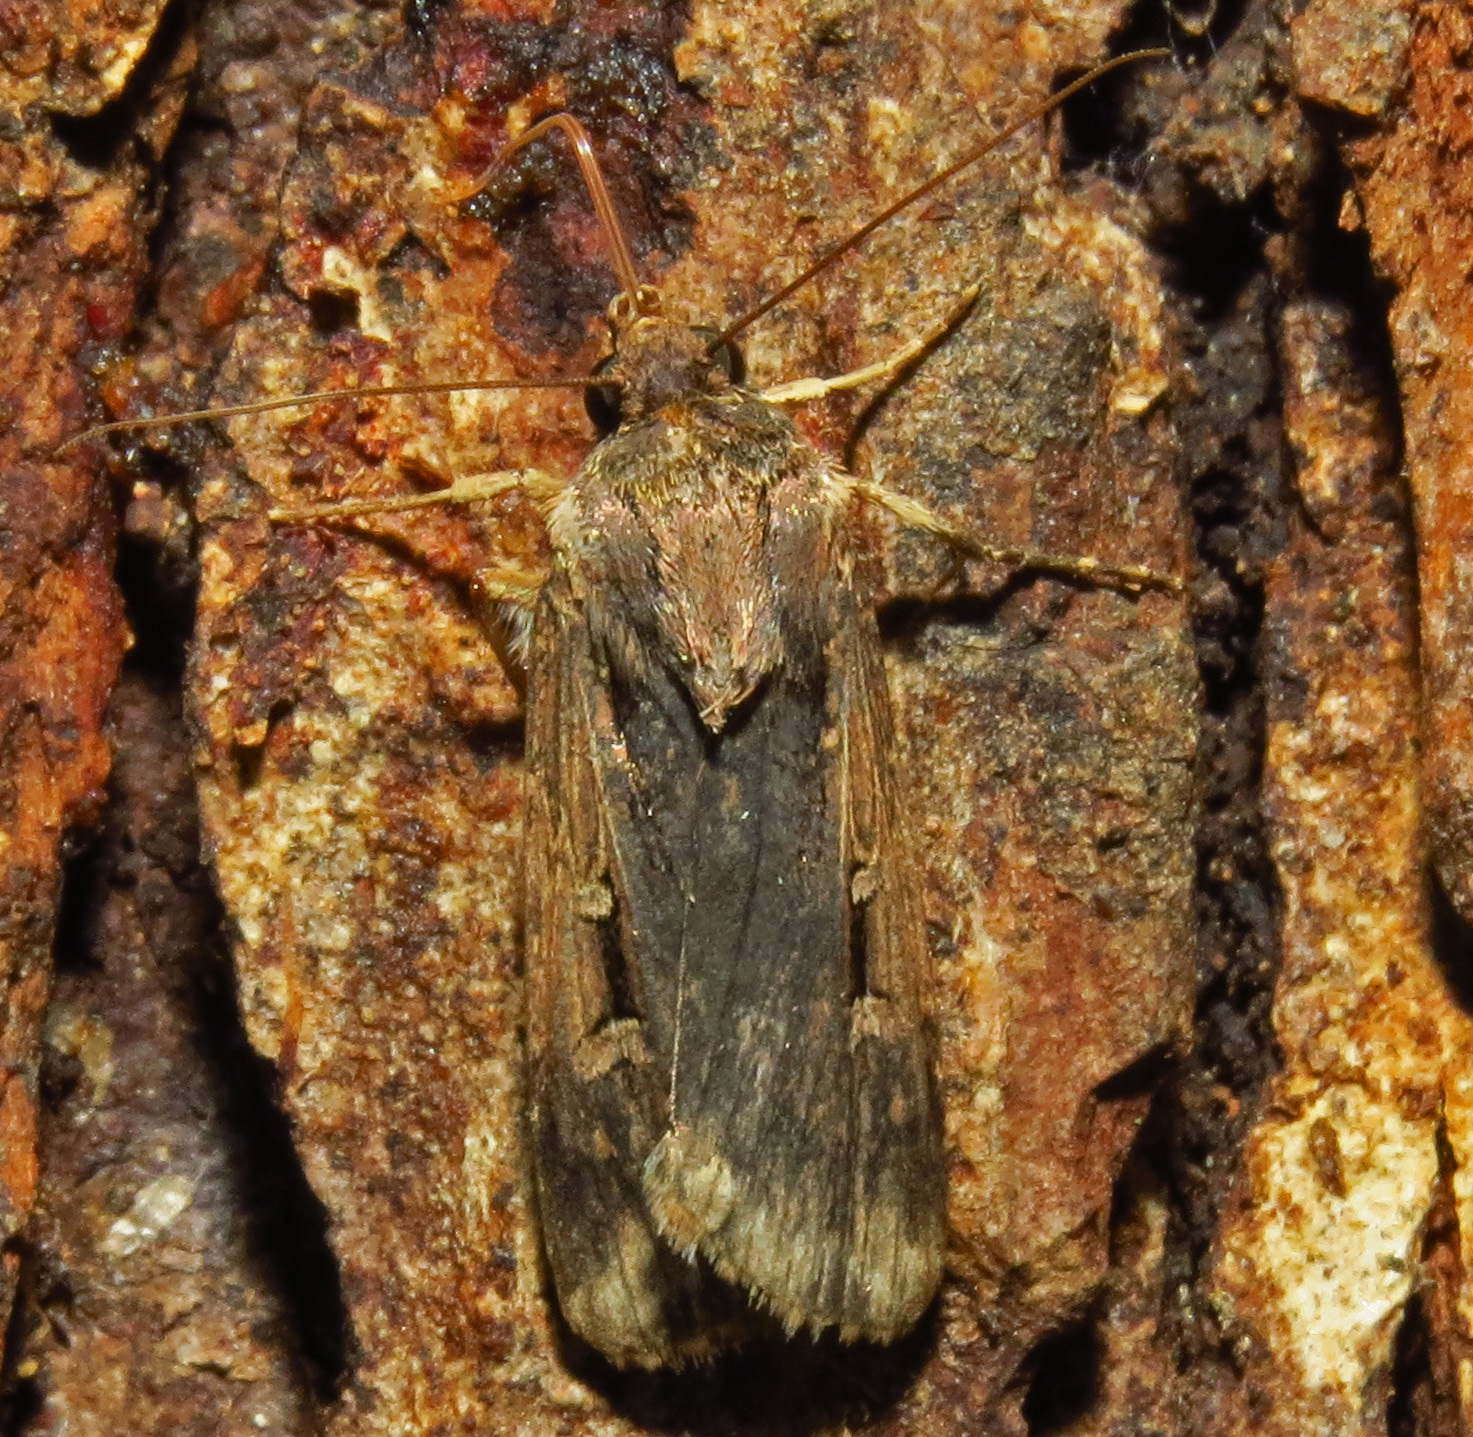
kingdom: Animalia
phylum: Arthropoda
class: Insecta
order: Lepidoptera
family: Noctuidae
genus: Feltia
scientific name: Feltia subterranea
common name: Granulate cutworm
